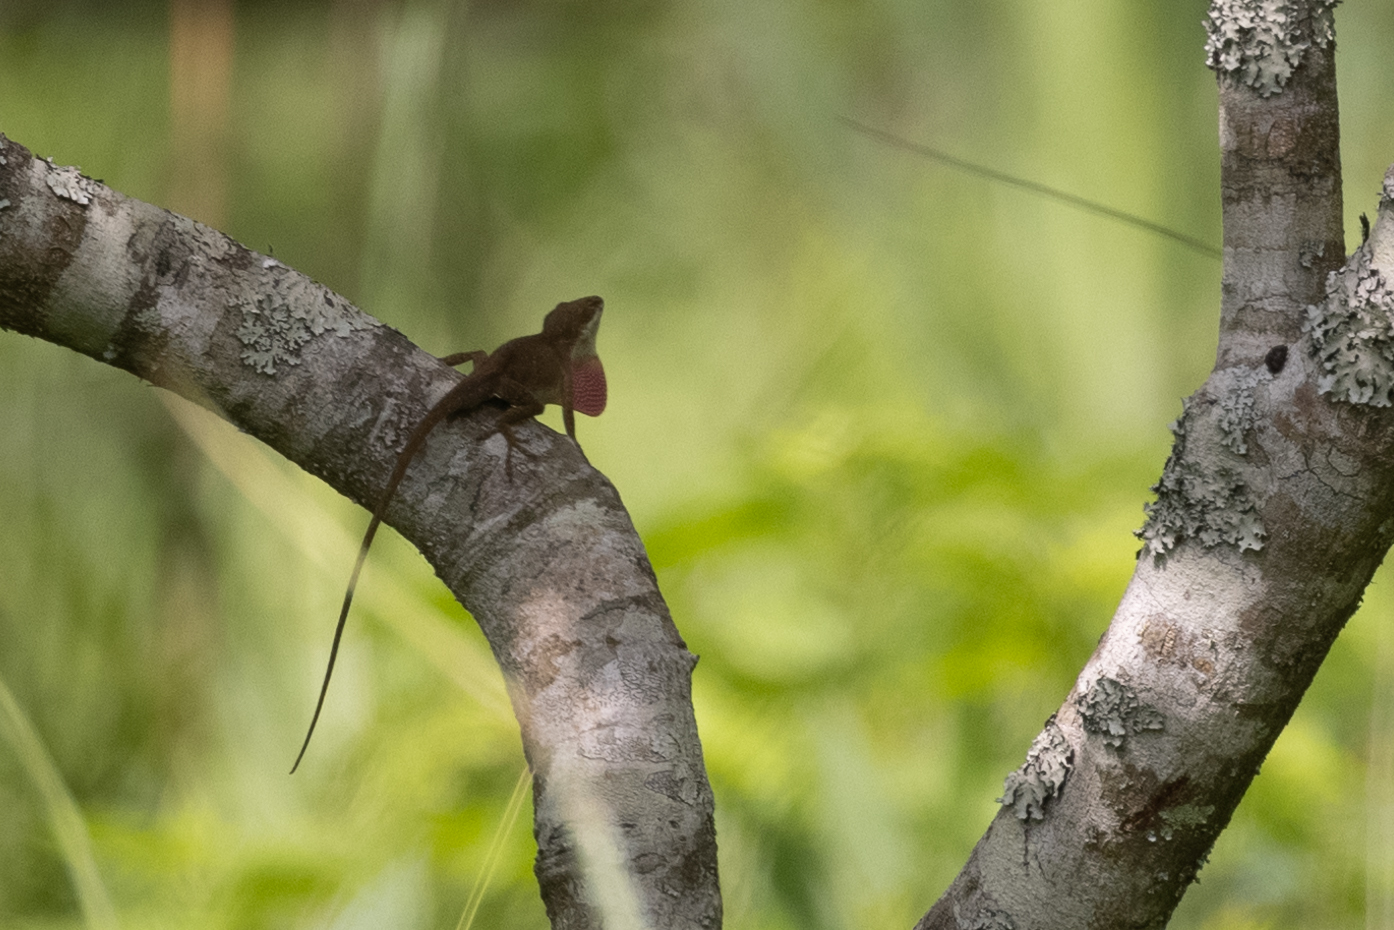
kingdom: Animalia
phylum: Chordata
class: Squamata
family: Dactyloidae
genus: Anolis
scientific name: Anolis carolinensis
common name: Green anole
